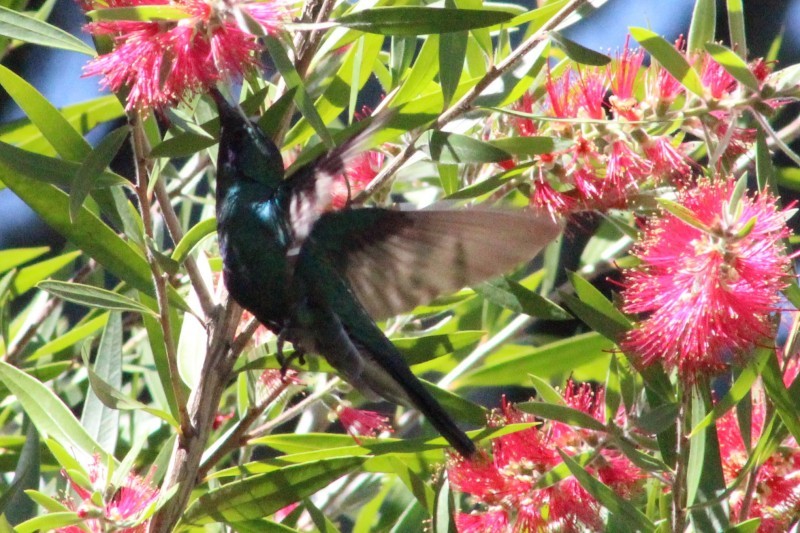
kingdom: Animalia
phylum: Chordata
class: Aves
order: Apodiformes
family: Trochilidae
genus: Colibri
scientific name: Colibri coruscans
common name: Sparkling violetear
